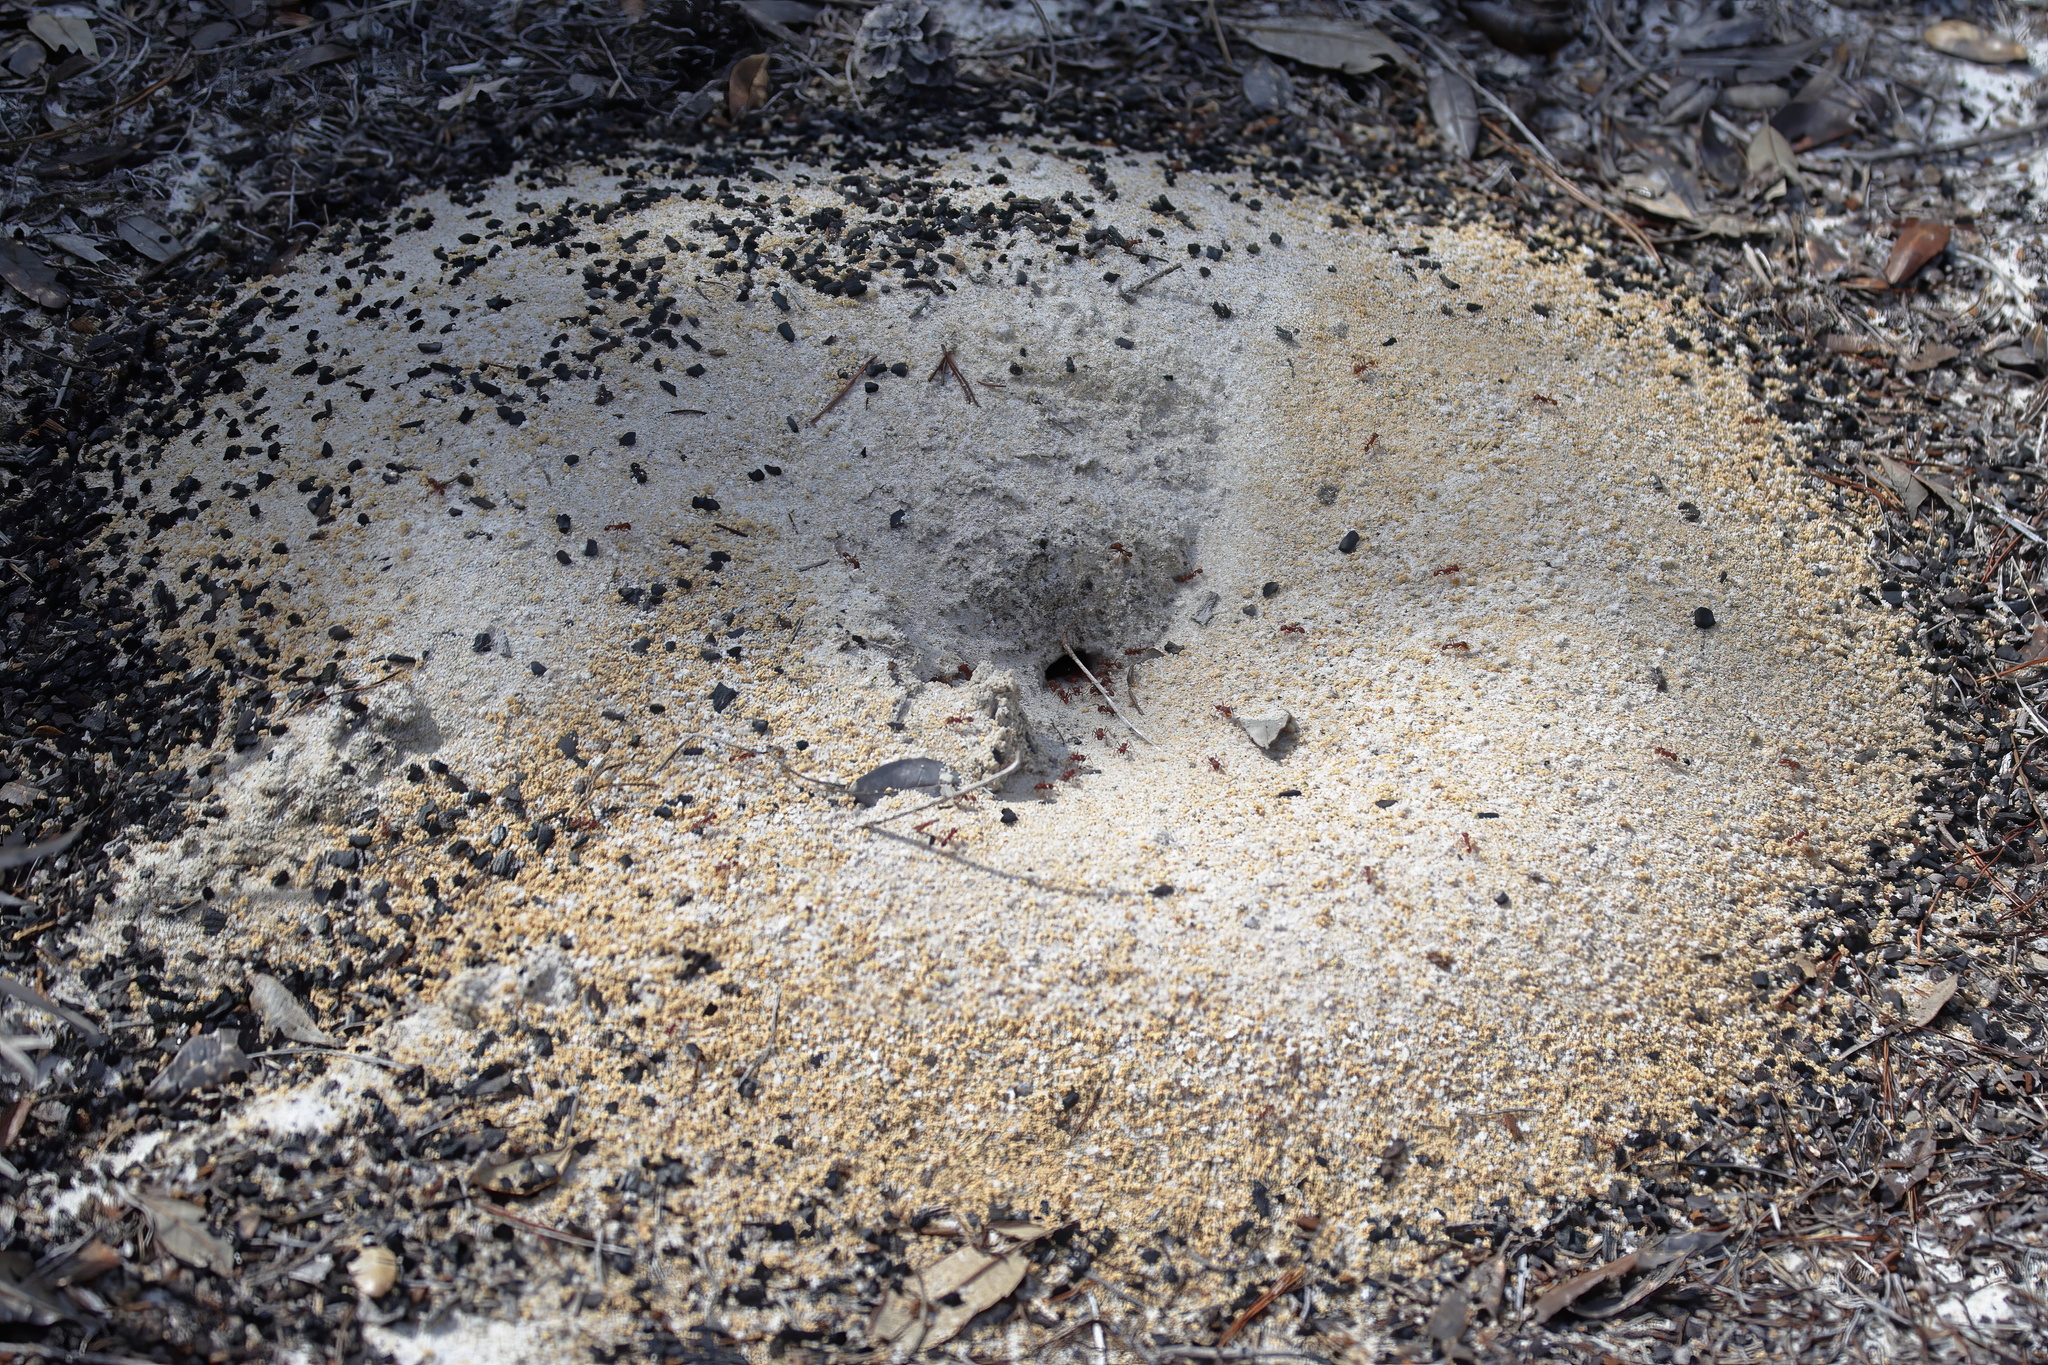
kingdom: Animalia
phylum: Arthropoda
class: Insecta
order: Hymenoptera
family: Formicidae
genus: Pogonomyrmex
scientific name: Pogonomyrmex badius
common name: Florida harvester ant
